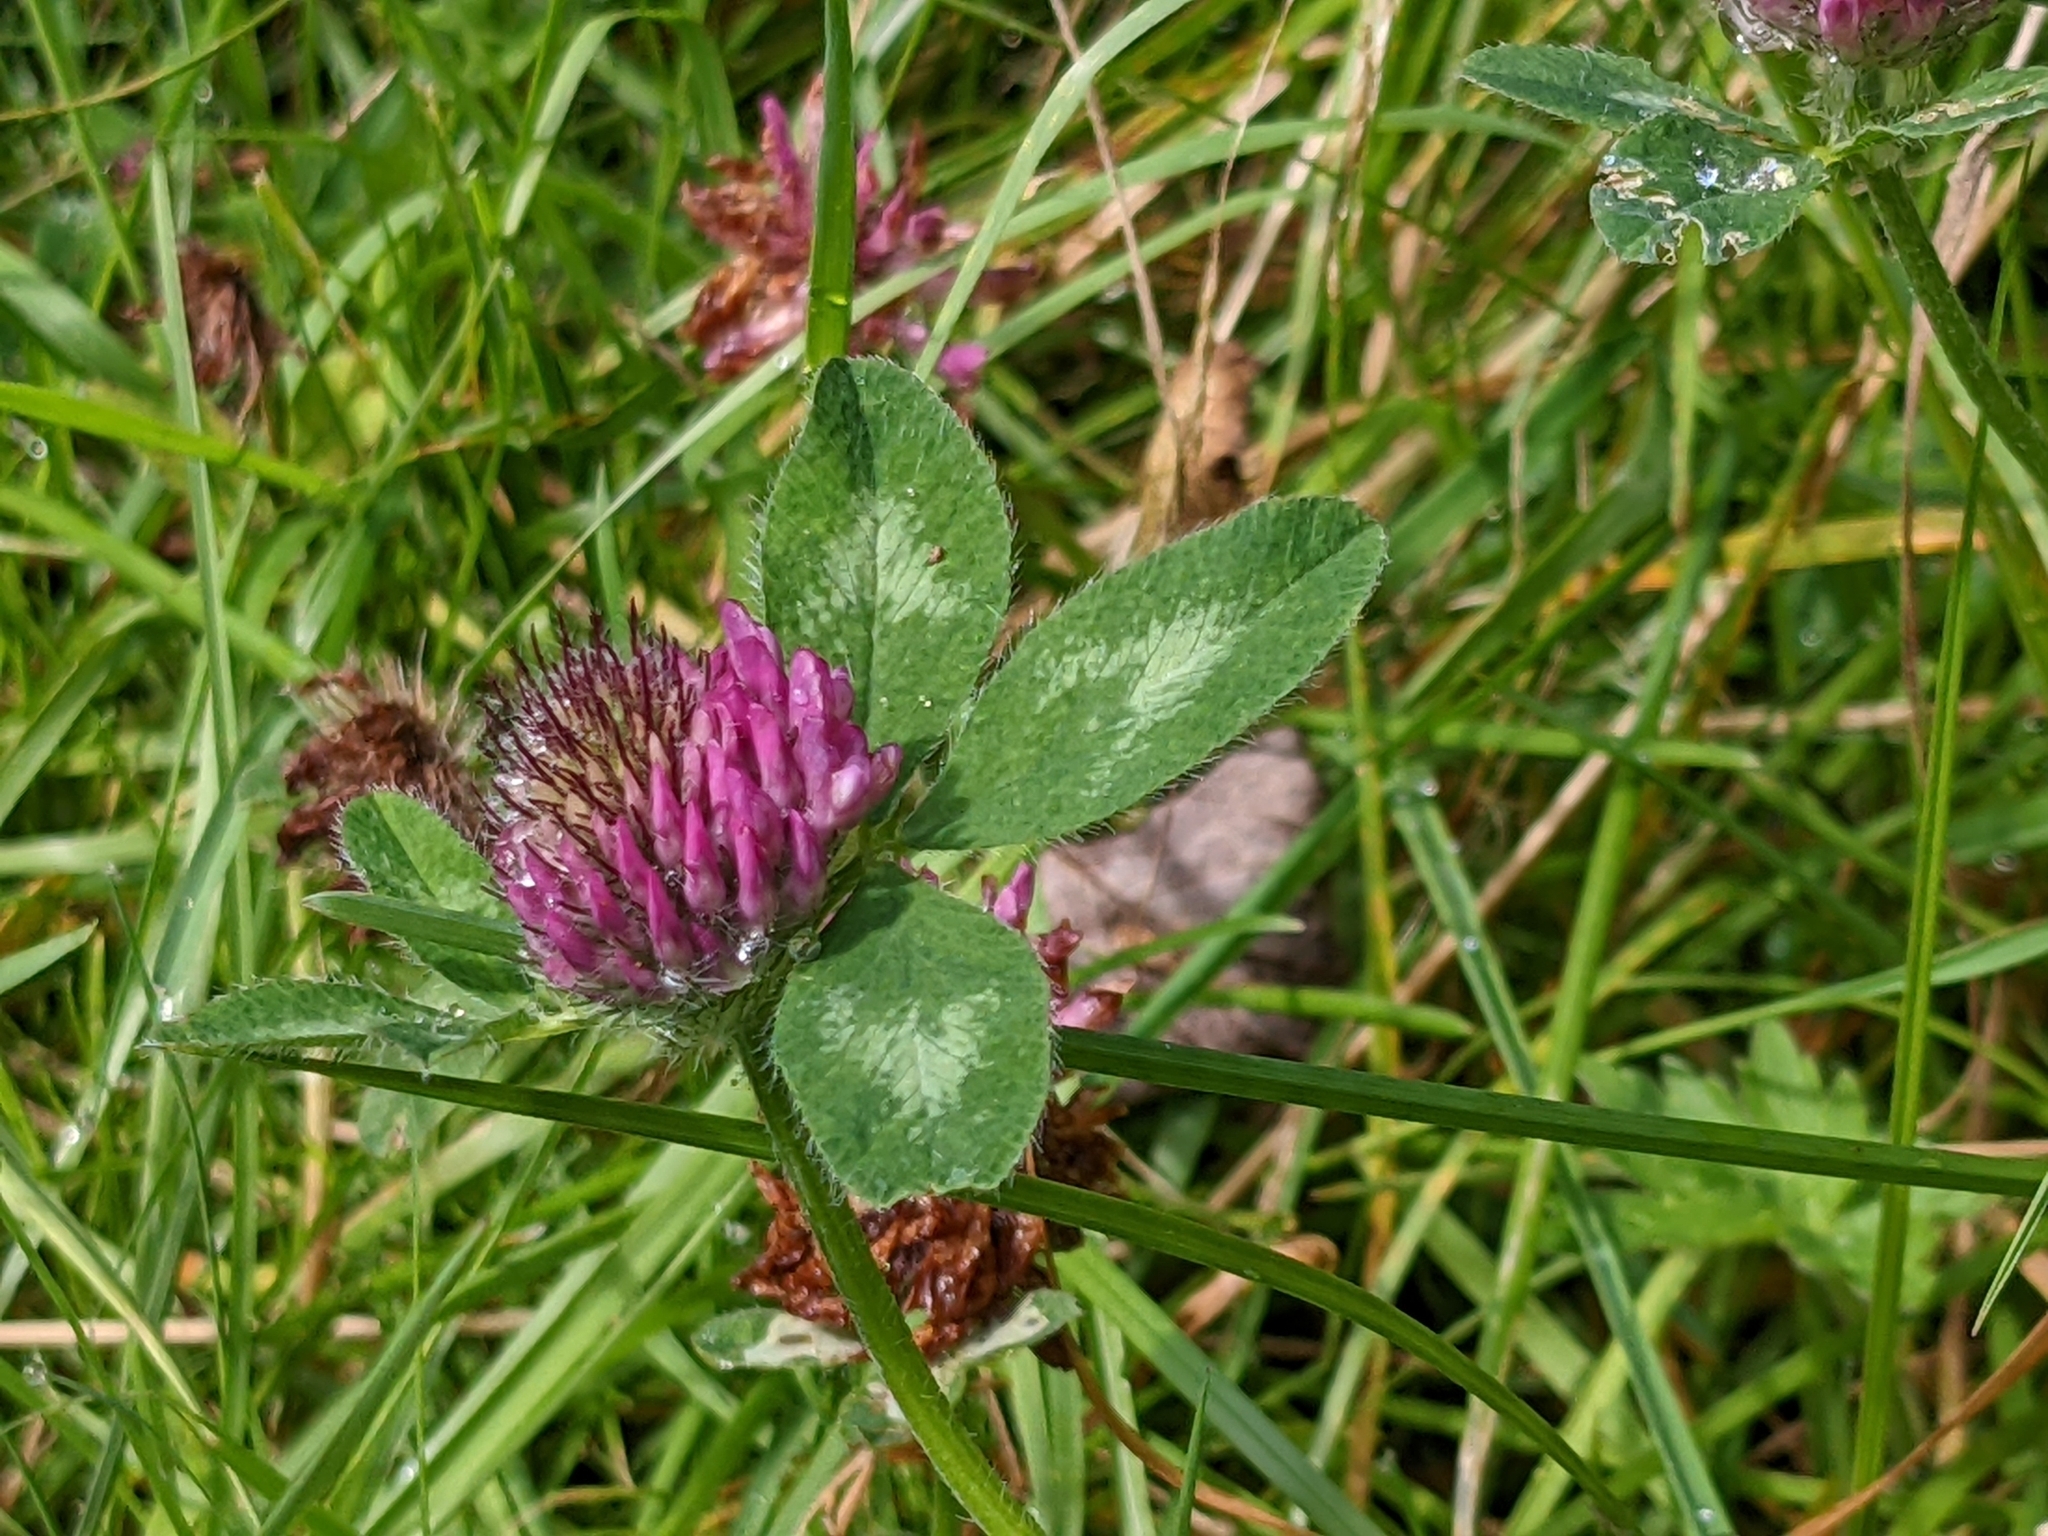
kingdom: Plantae
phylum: Tracheophyta
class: Magnoliopsida
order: Fabales
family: Fabaceae
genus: Trifolium
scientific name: Trifolium pratense
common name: Red clover
